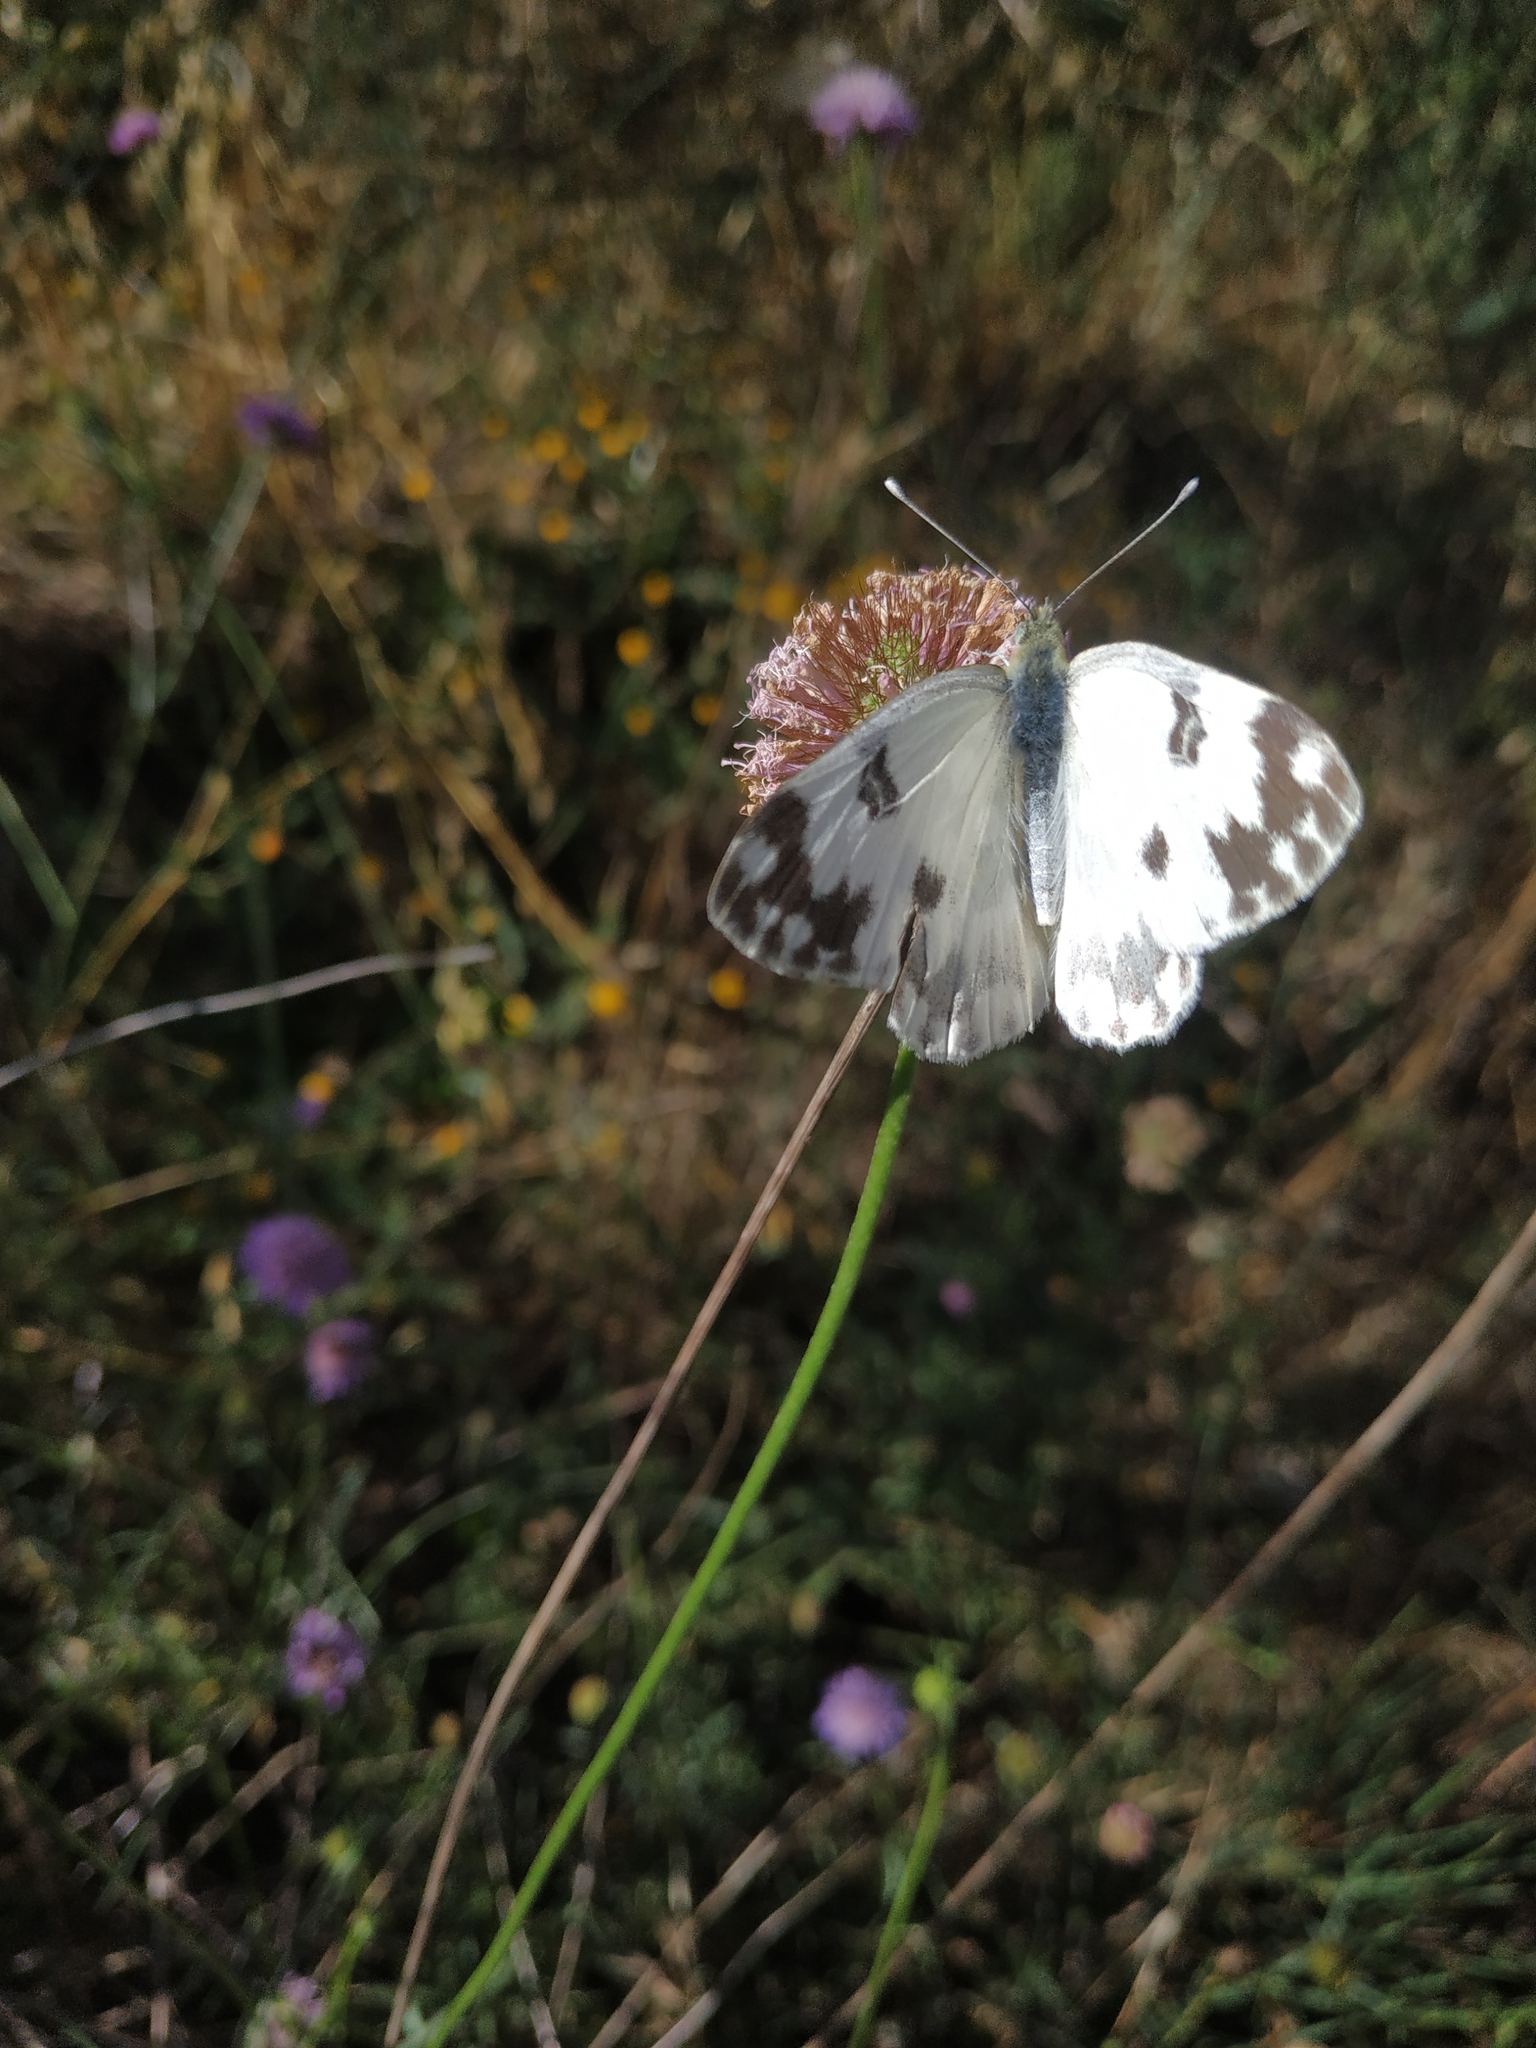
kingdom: Animalia
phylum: Arthropoda
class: Insecta
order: Lepidoptera
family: Pieridae
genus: Pontia
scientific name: Pontia edusa
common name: Eastern bath white
